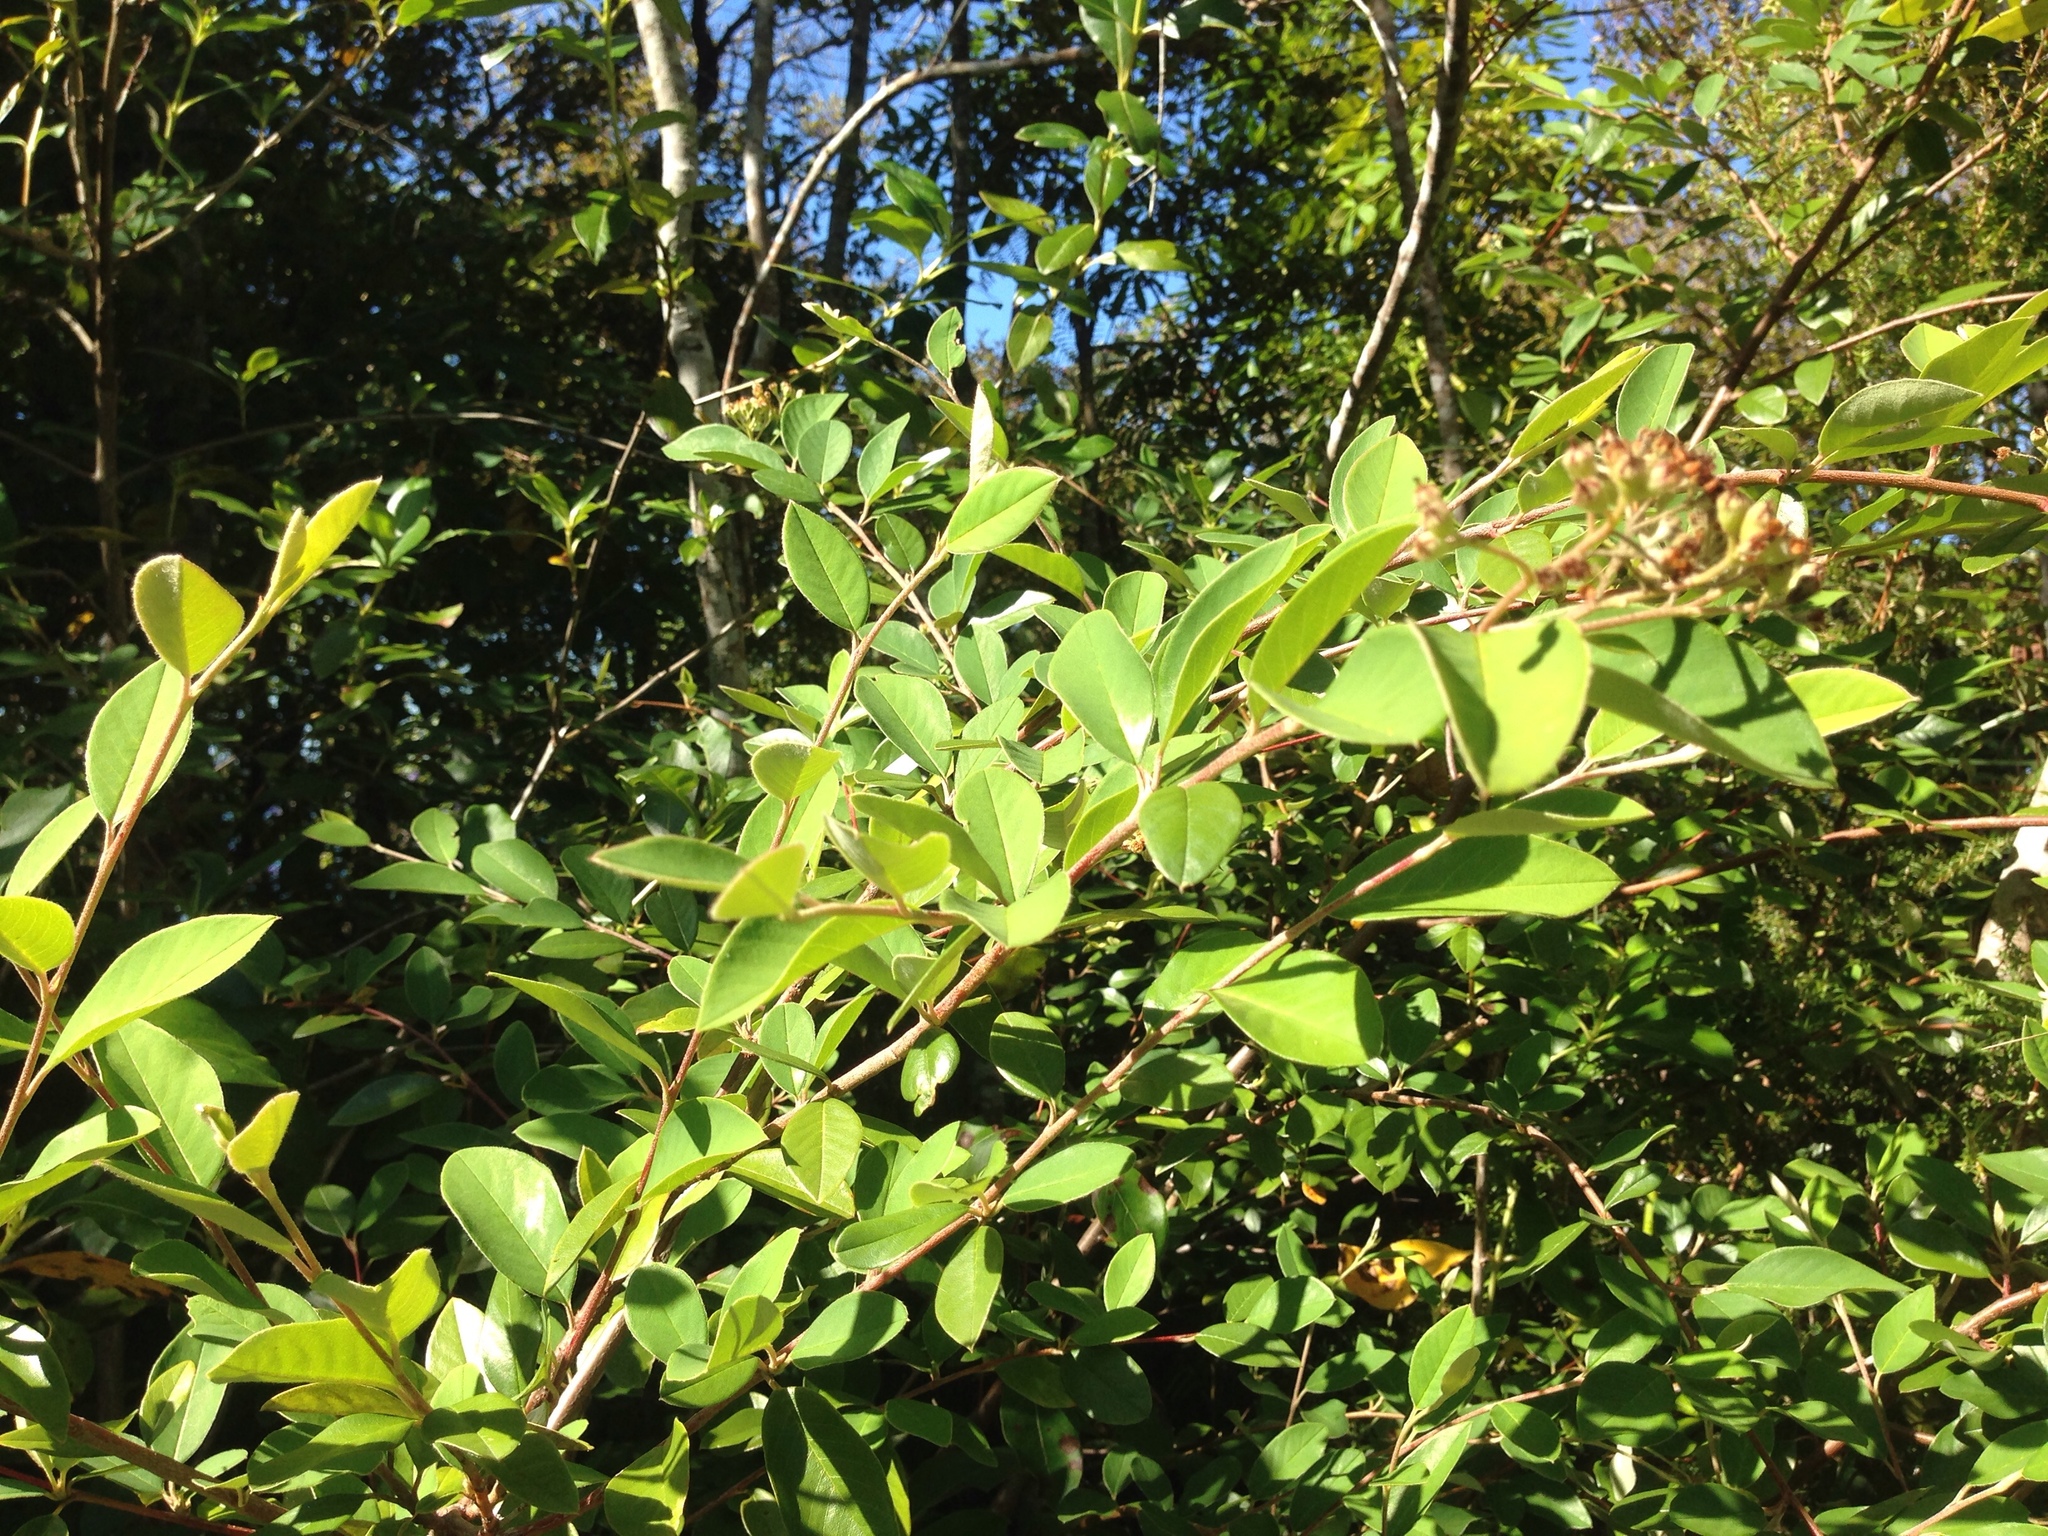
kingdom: Plantae
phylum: Tracheophyta
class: Magnoliopsida
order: Rosales
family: Rosaceae
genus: Cotoneaster
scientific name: Cotoneaster glaucophyllus
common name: Glaucous cotoneaster
